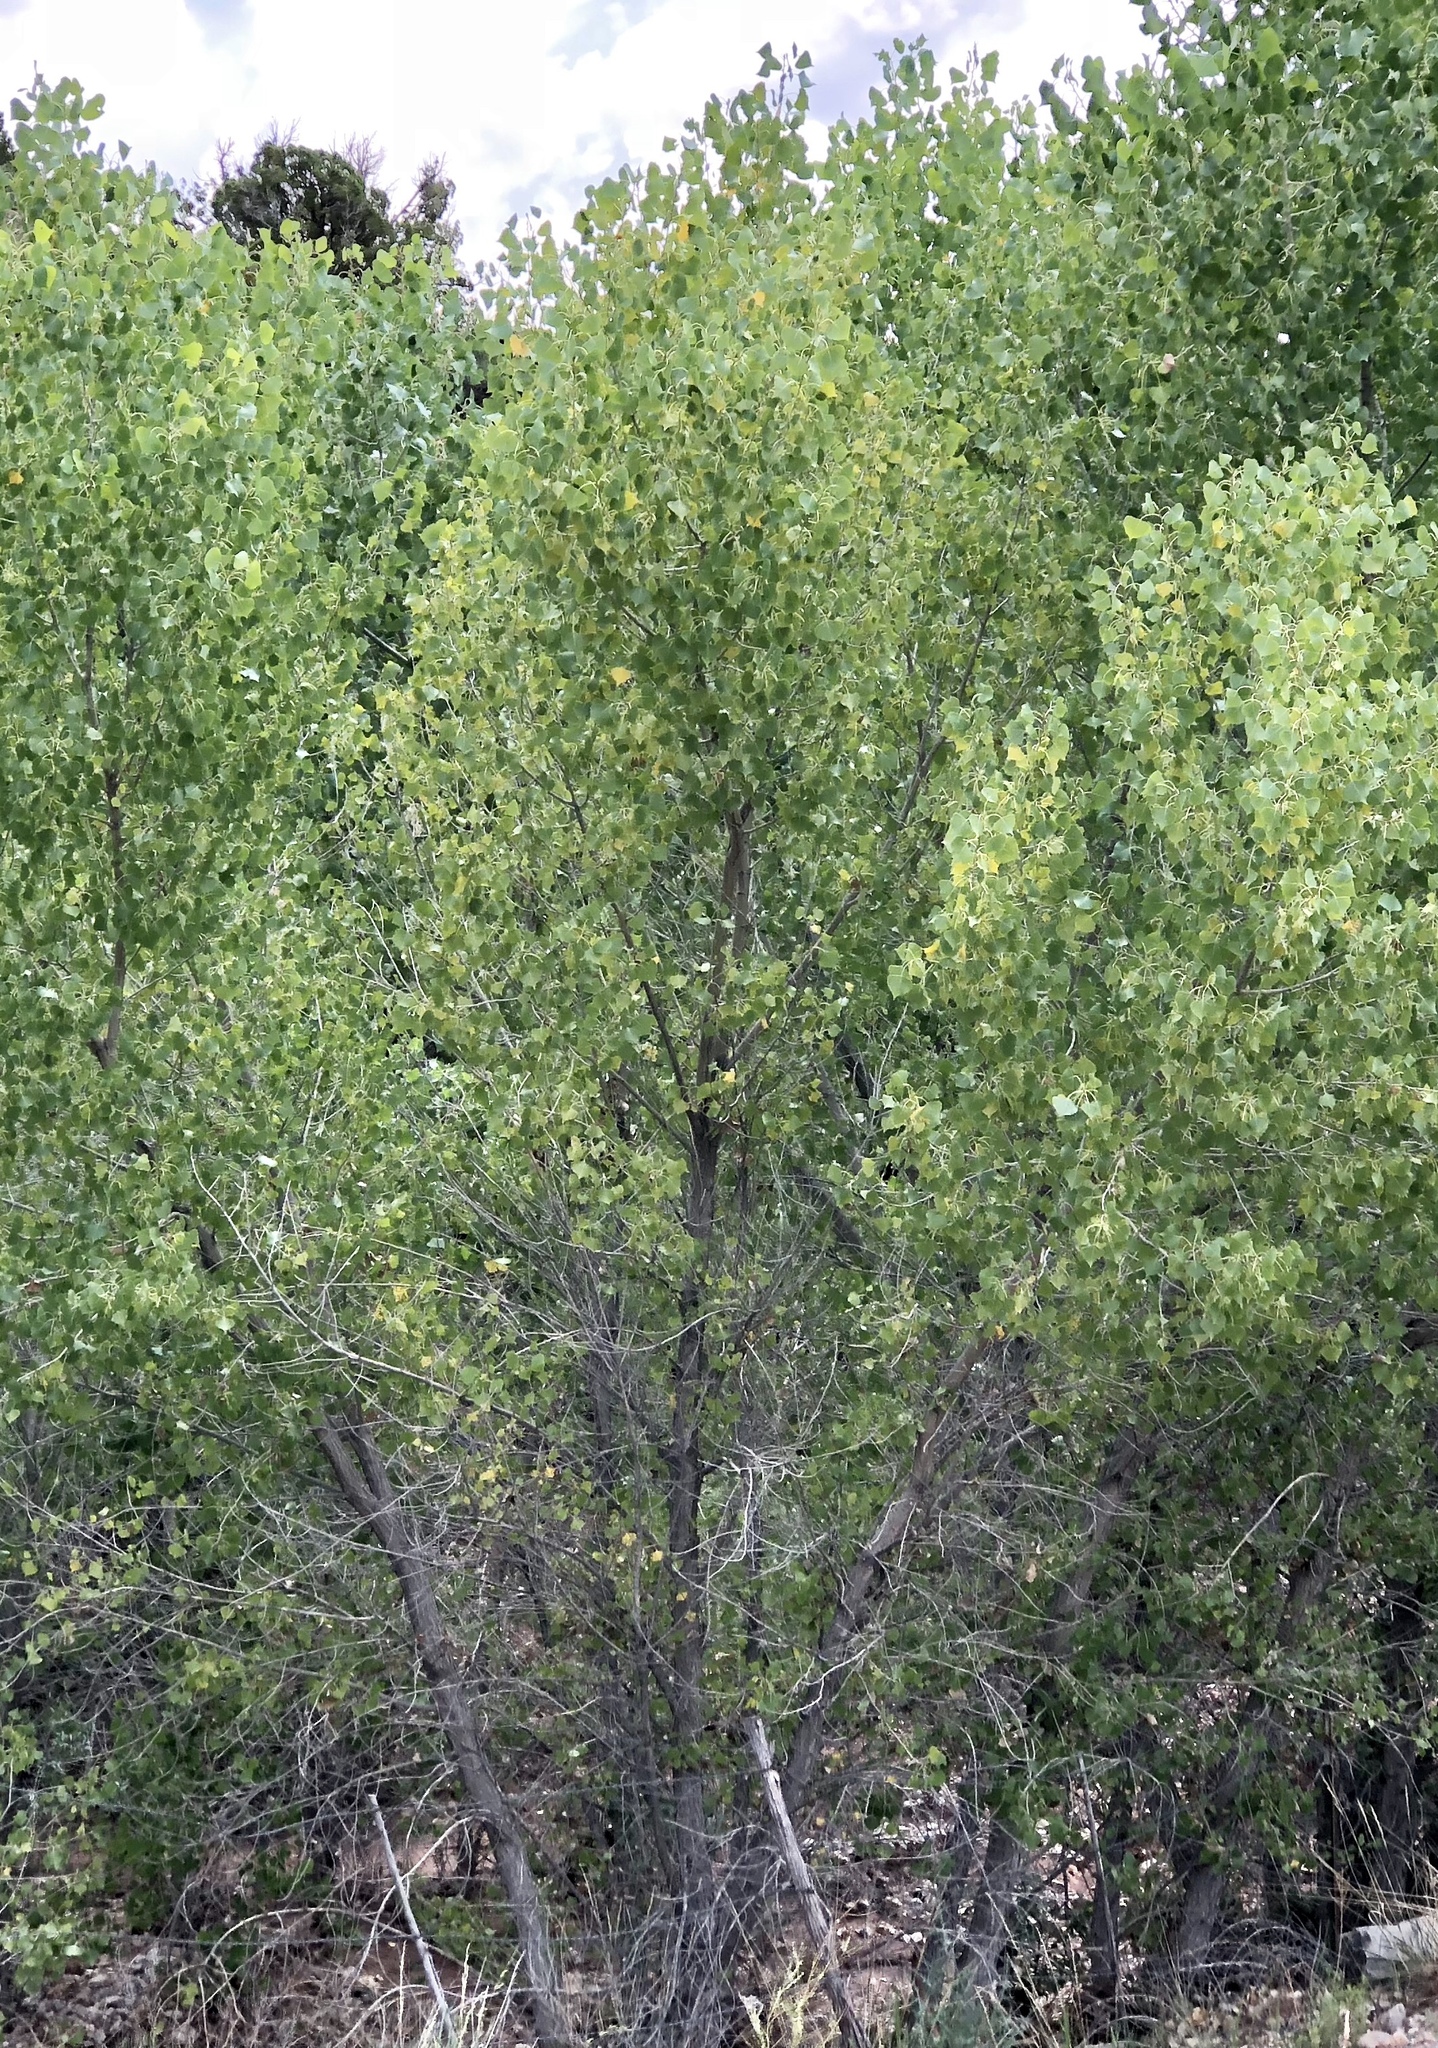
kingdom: Plantae
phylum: Tracheophyta
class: Magnoliopsida
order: Malpighiales
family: Salicaceae
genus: Populus
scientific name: Populus fremontii
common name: Fremont's cottonwood
